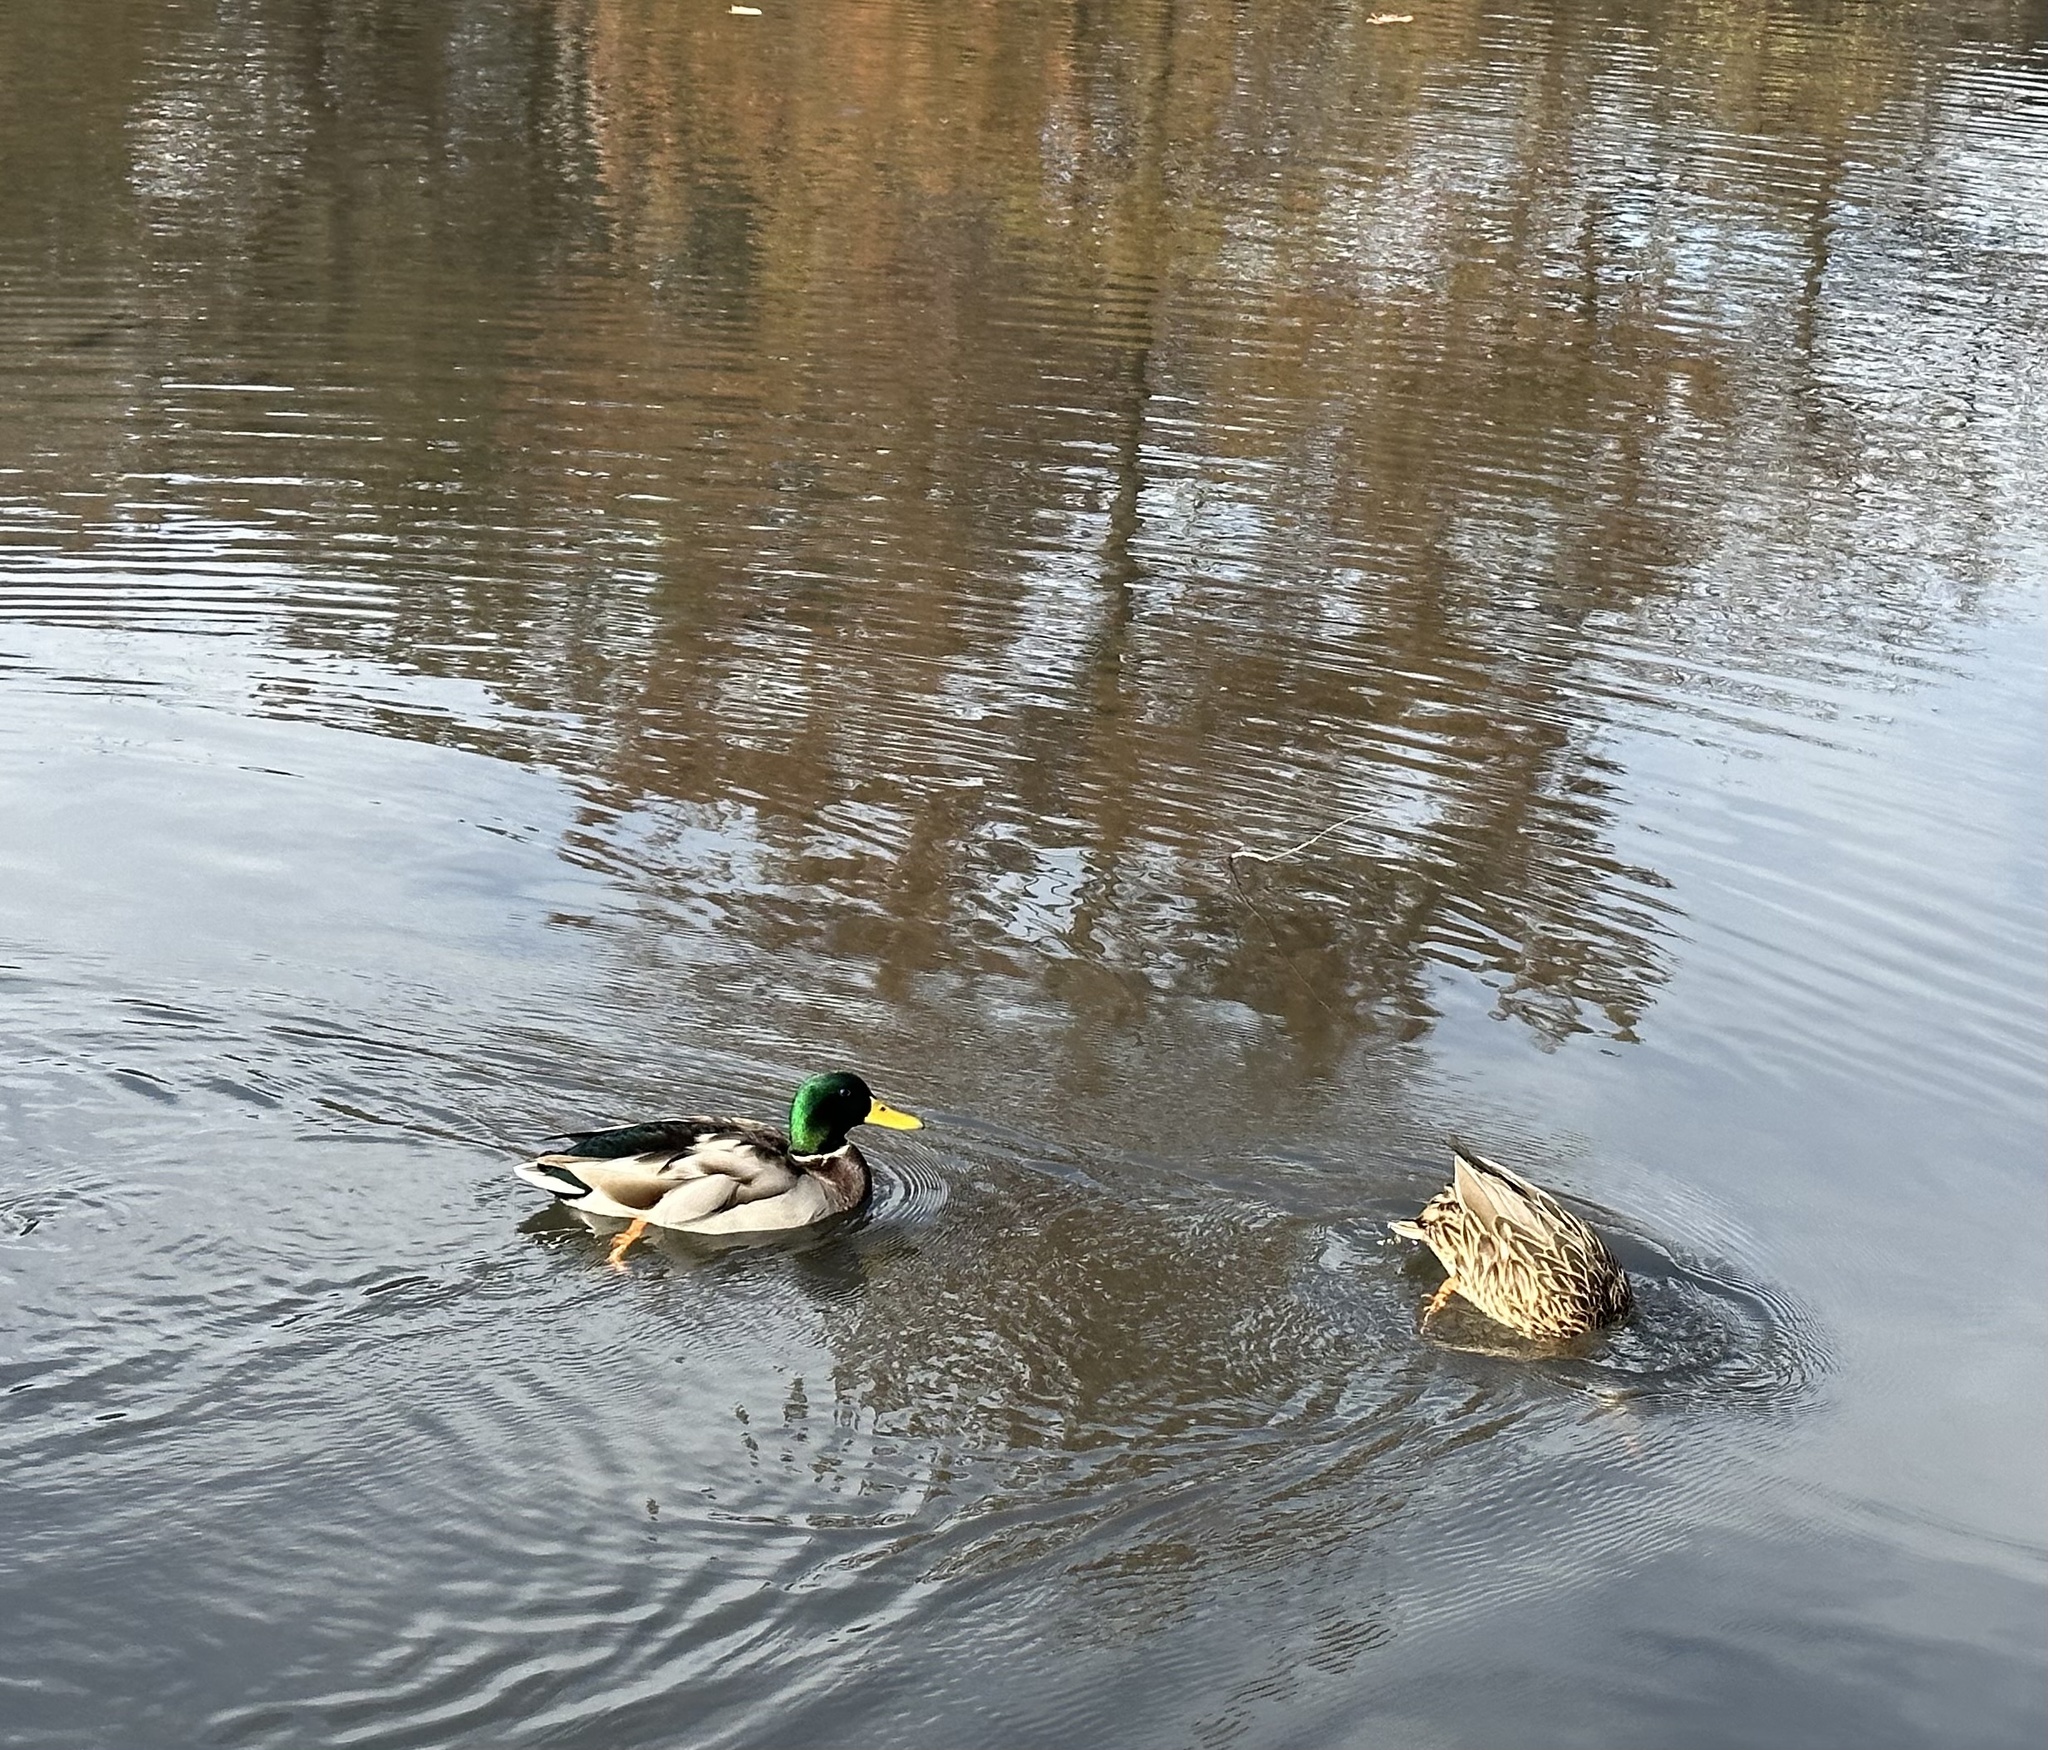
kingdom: Animalia
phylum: Chordata
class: Aves
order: Anseriformes
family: Anatidae
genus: Anas
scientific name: Anas platyrhynchos
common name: Mallard
